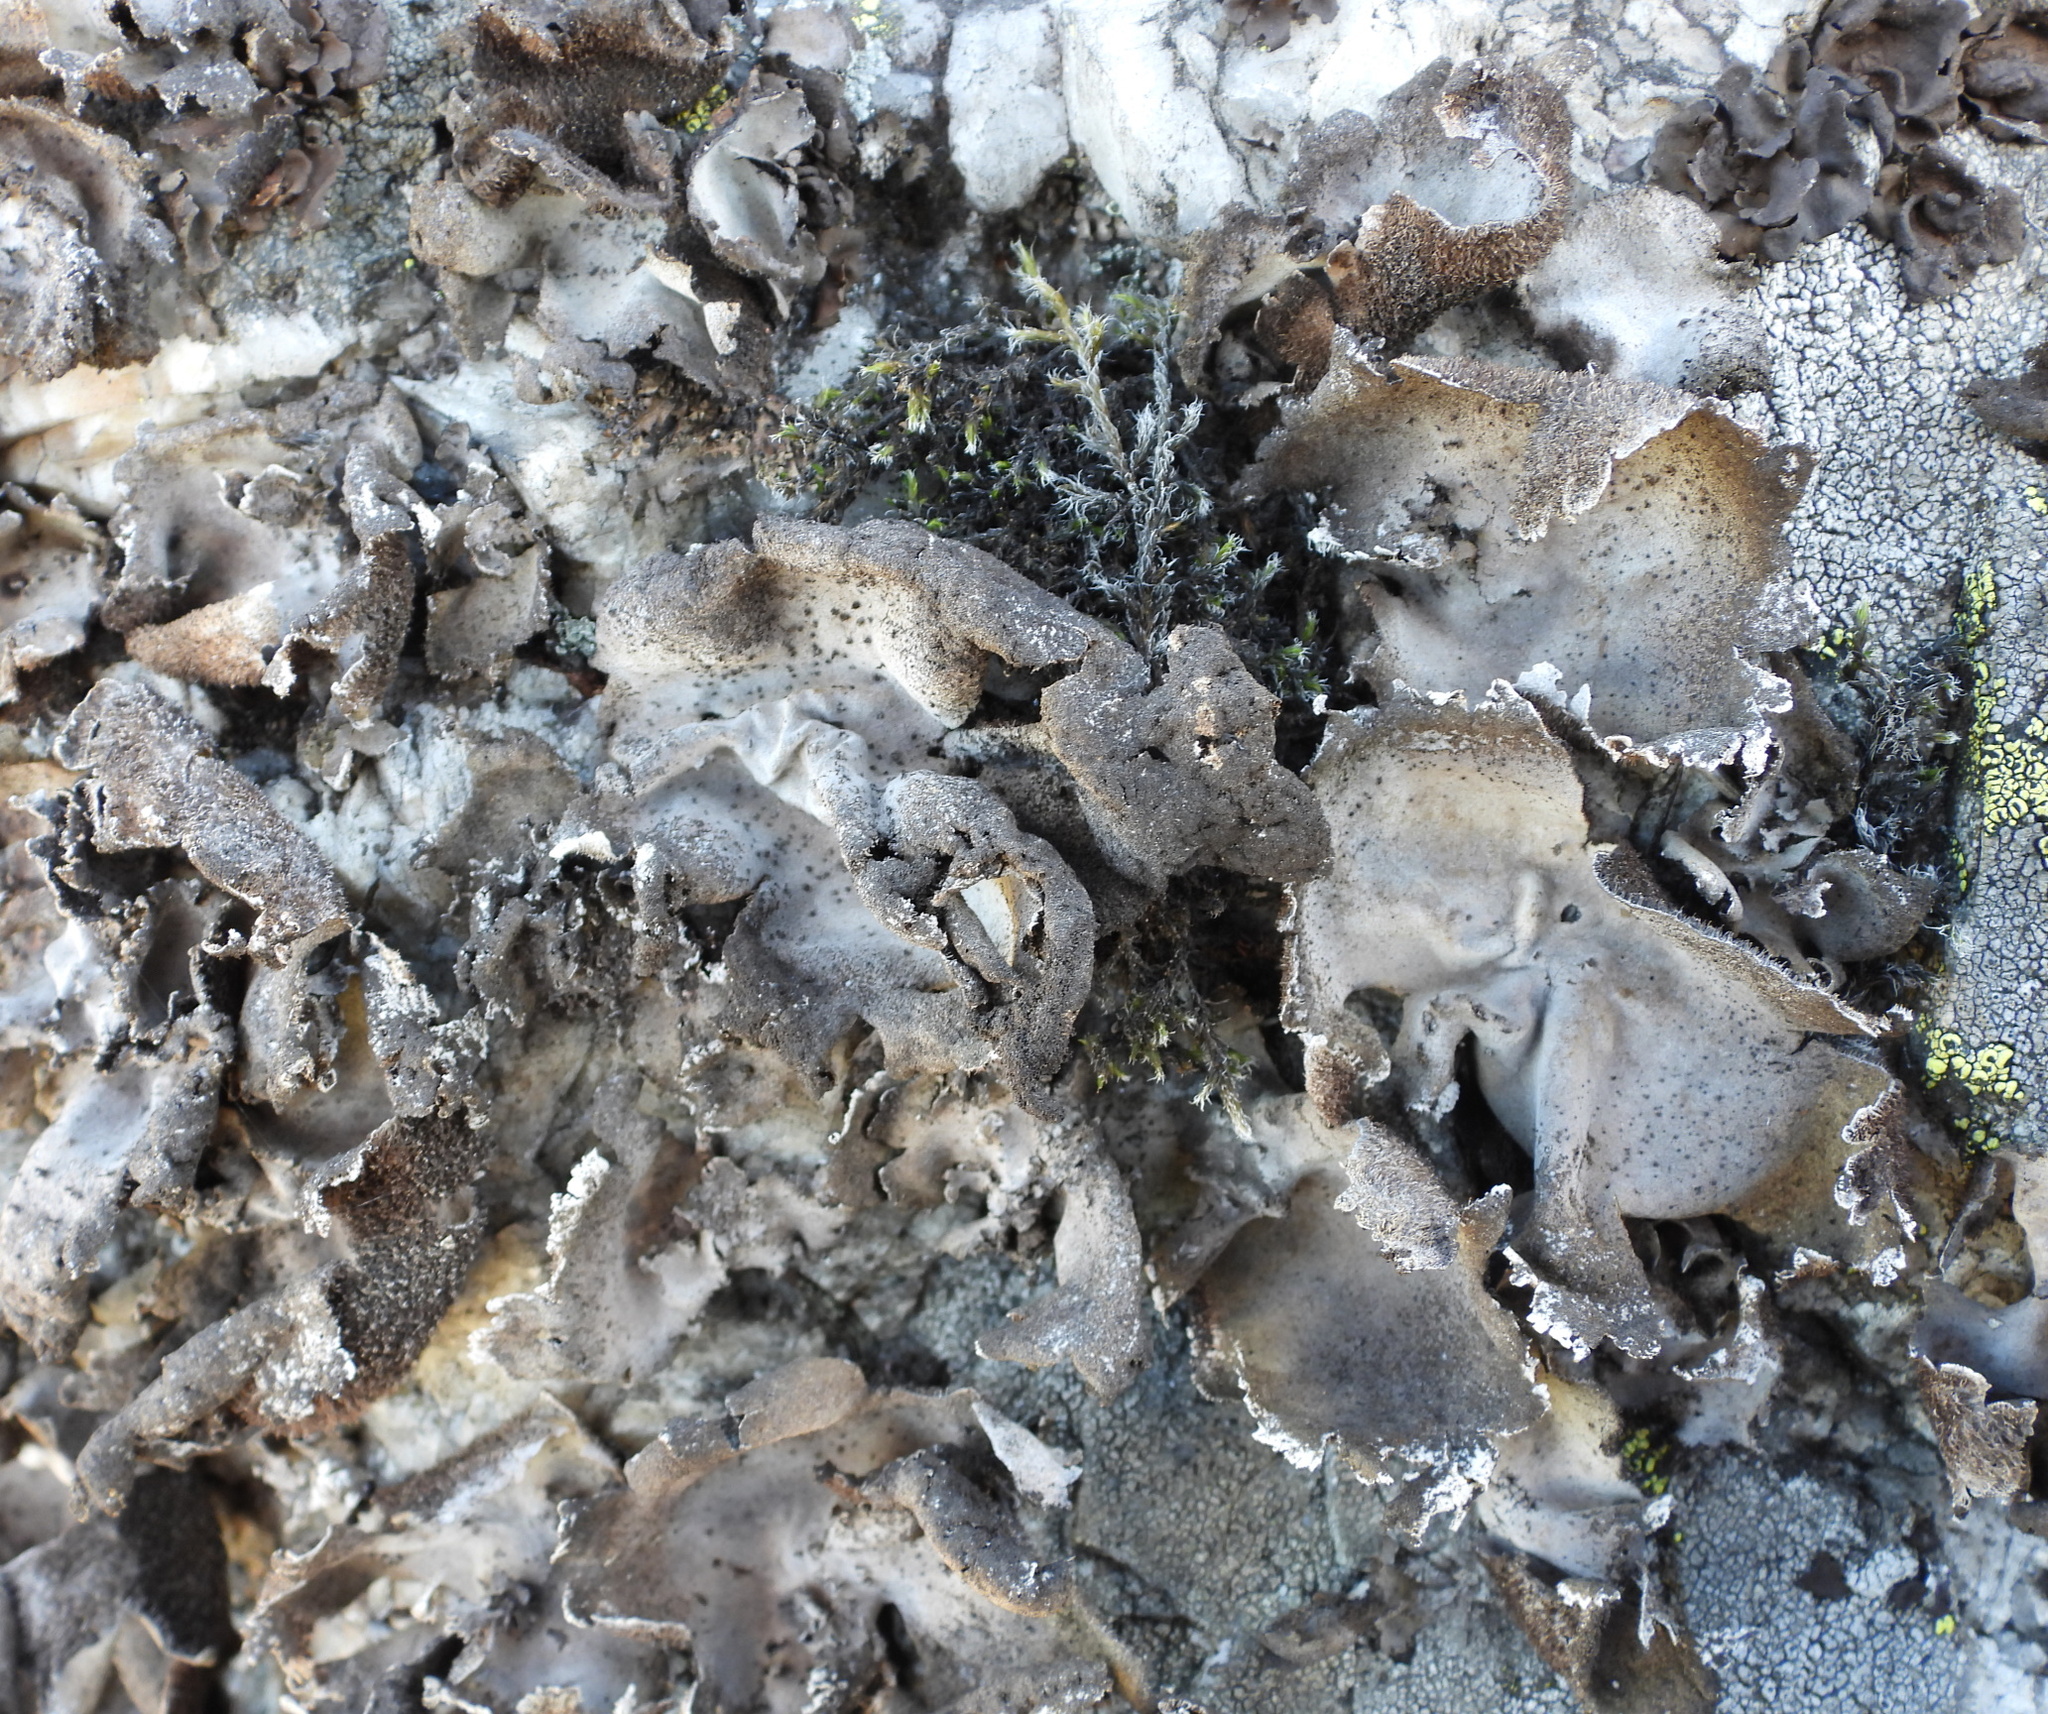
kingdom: Fungi
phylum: Ascomycota
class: Lecanoromycetes
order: Umbilicariales
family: Umbilicariaceae
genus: Umbilicaria
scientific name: Umbilicaria hirsuta
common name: Granulating rocktripe lichen
